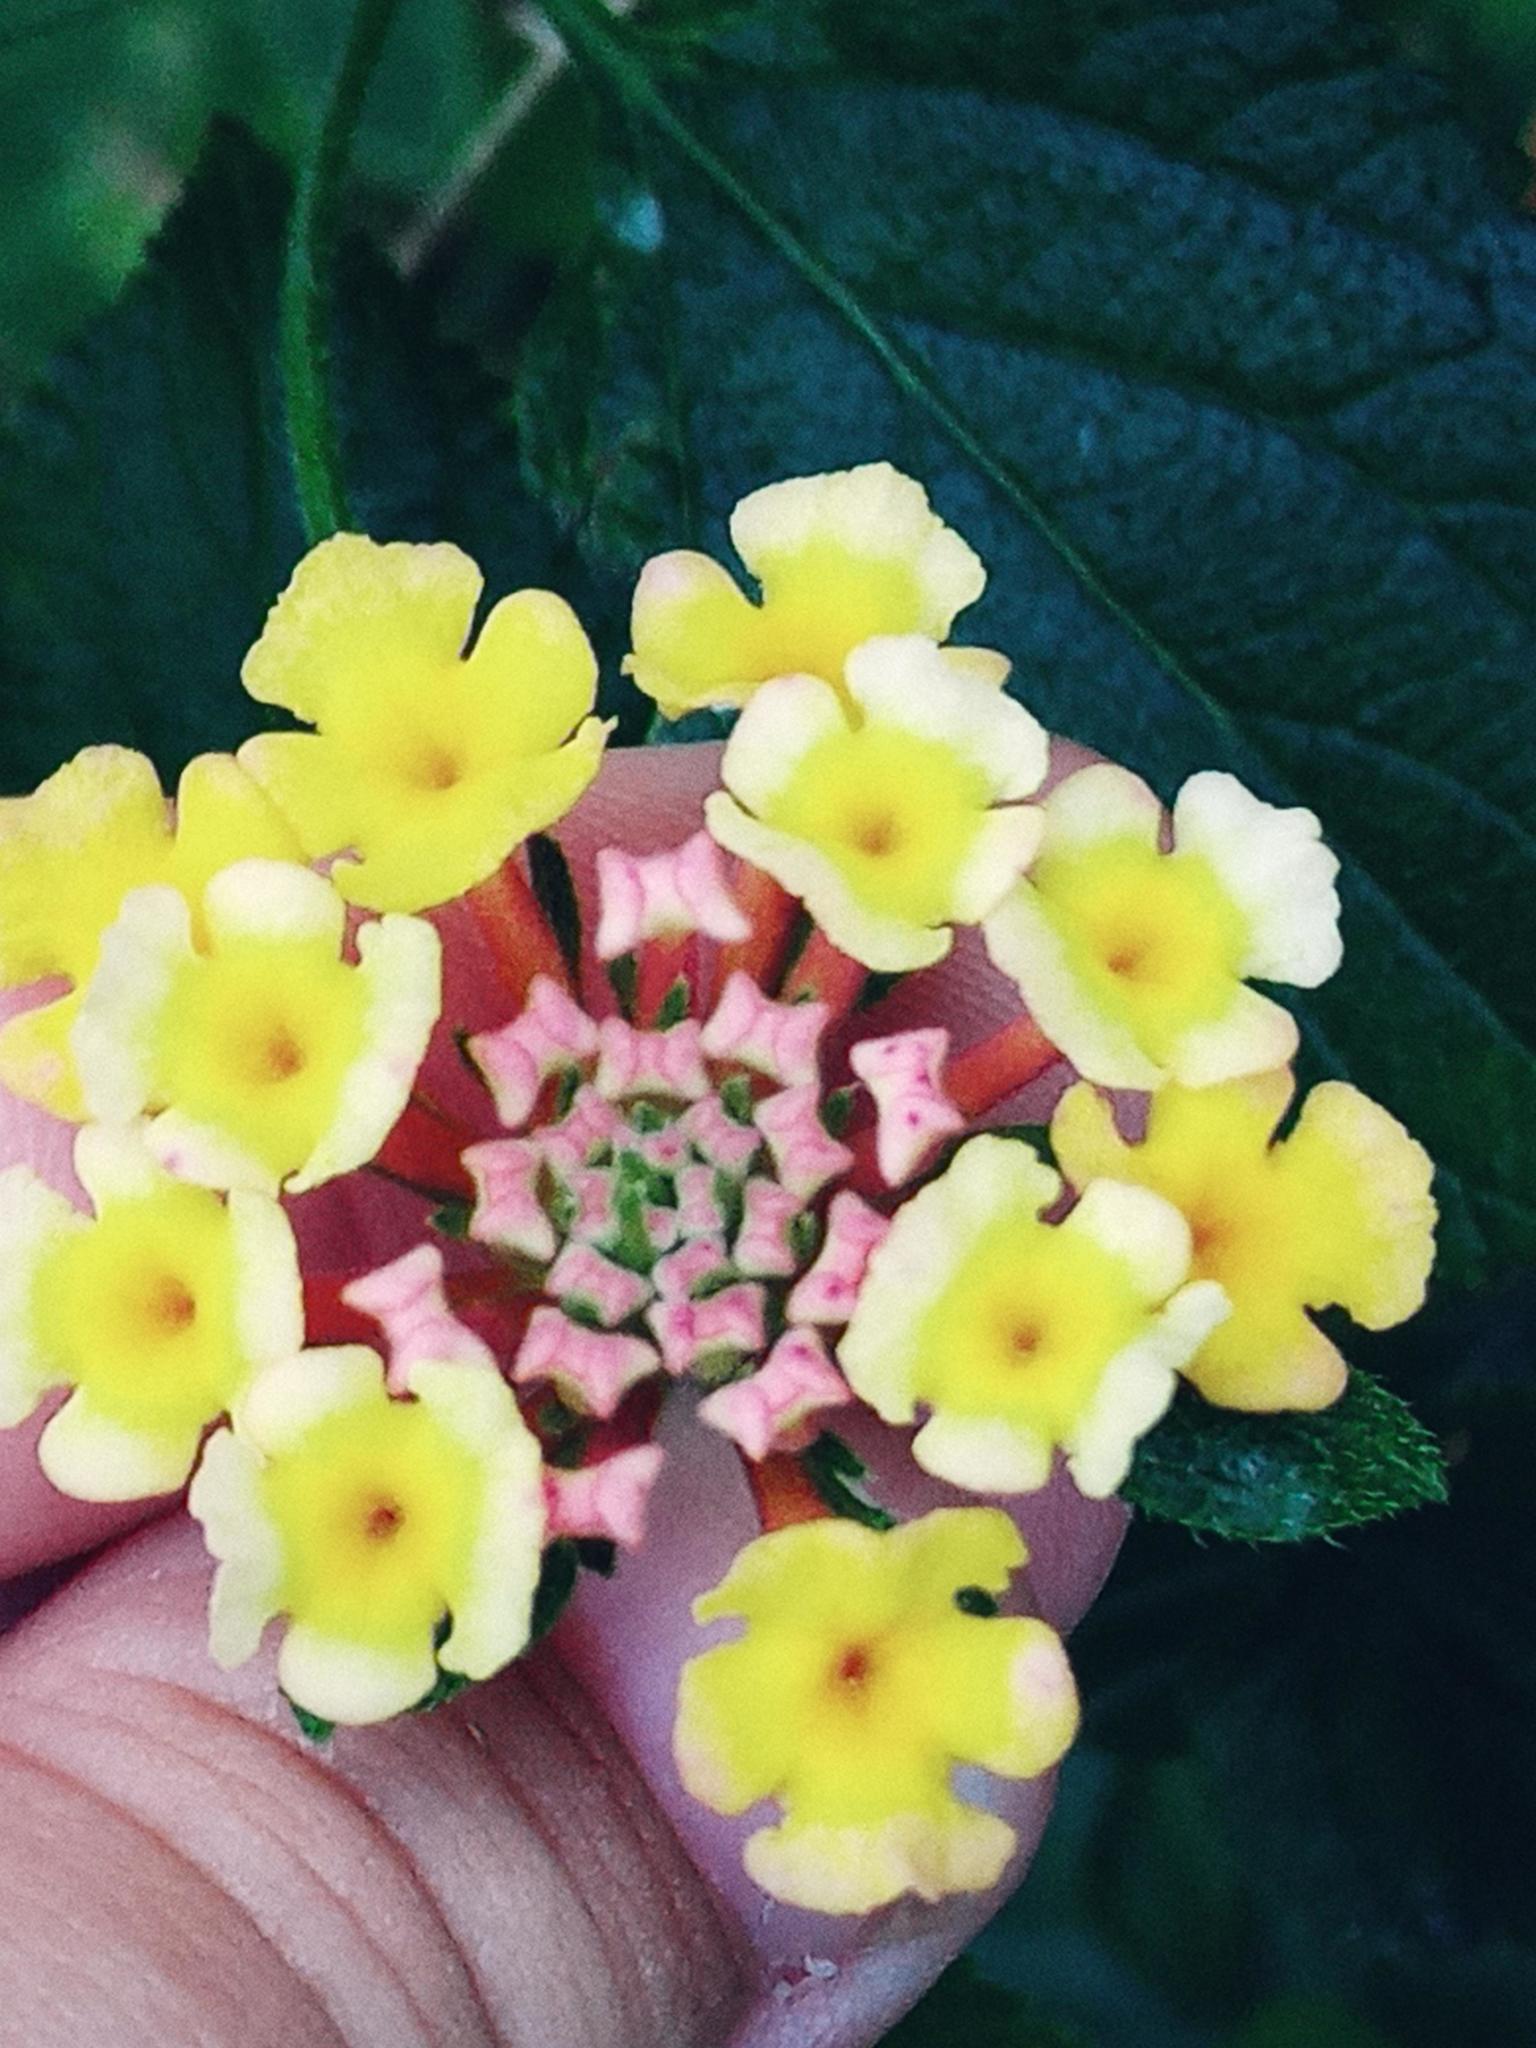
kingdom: Plantae
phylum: Tracheophyta
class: Magnoliopsida
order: Lamiales
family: Verbenaceae
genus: Lantana
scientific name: Lantana camara
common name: Lantana
